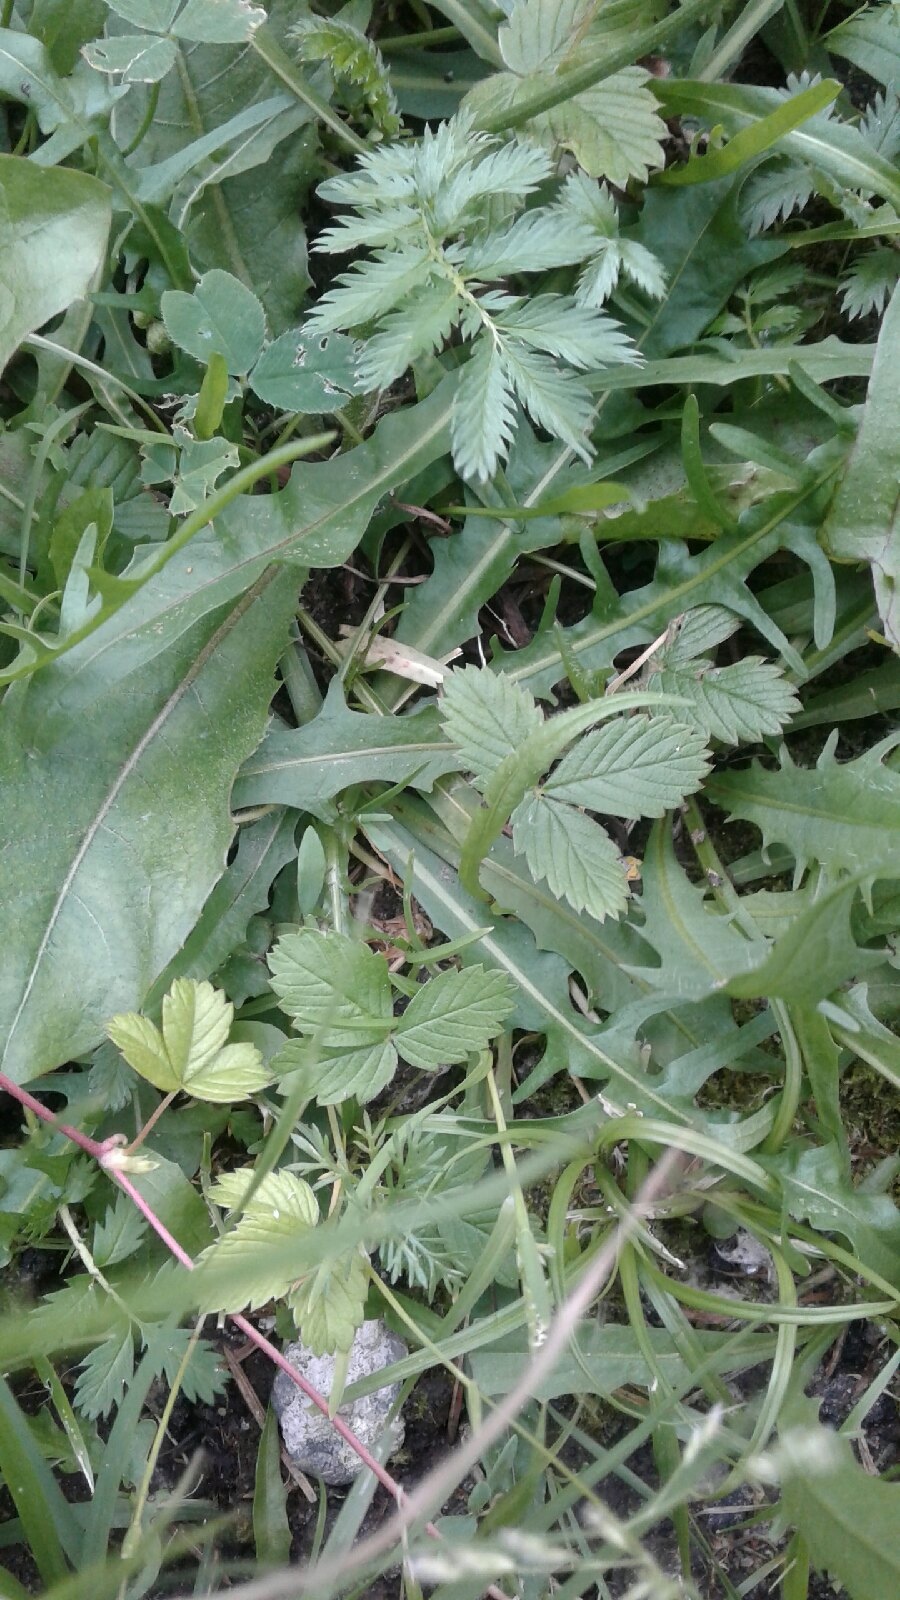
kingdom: Plantae
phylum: Tracheophyta
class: Magnoliopsida
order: Rosales
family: Rosaceae
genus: Fragaria
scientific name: Fragaria vesca
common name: Wild strawberry
